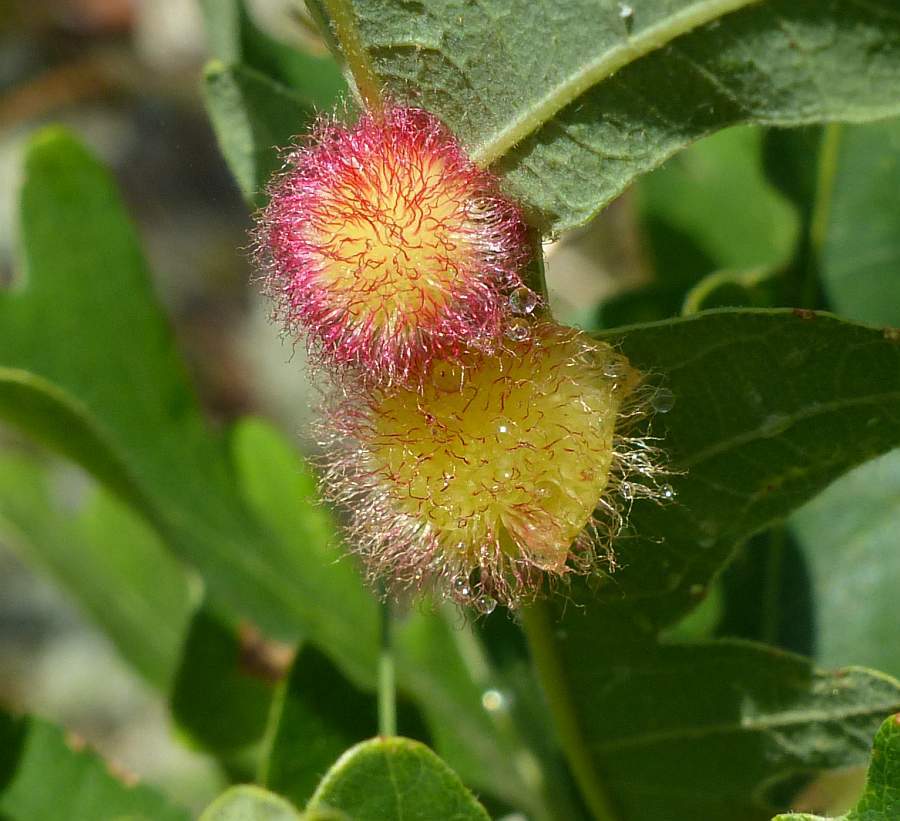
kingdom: Animalia
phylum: Arthropoda
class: Insecta
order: Hymenoptera
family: Cynipidae
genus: Acraspis
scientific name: Acraspis villosa
